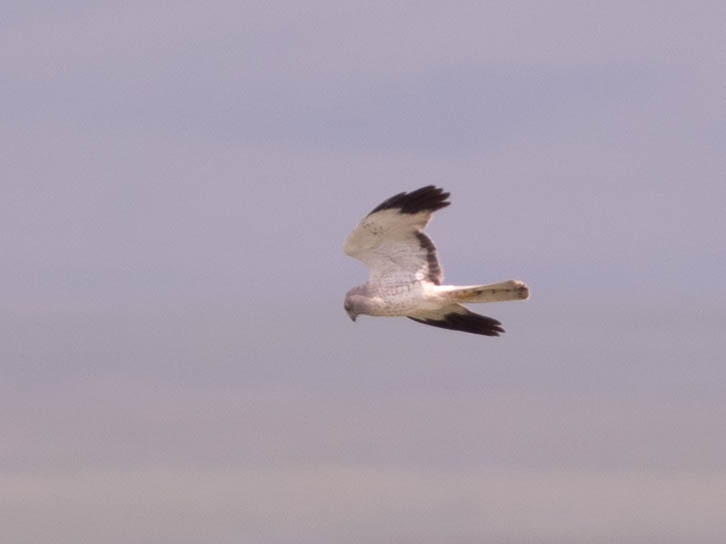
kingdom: Animalia
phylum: Chordata
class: Aves
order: Accipitriformes
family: Accipitridae
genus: Circus
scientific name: Circus cyaneus
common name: Hen harrier
